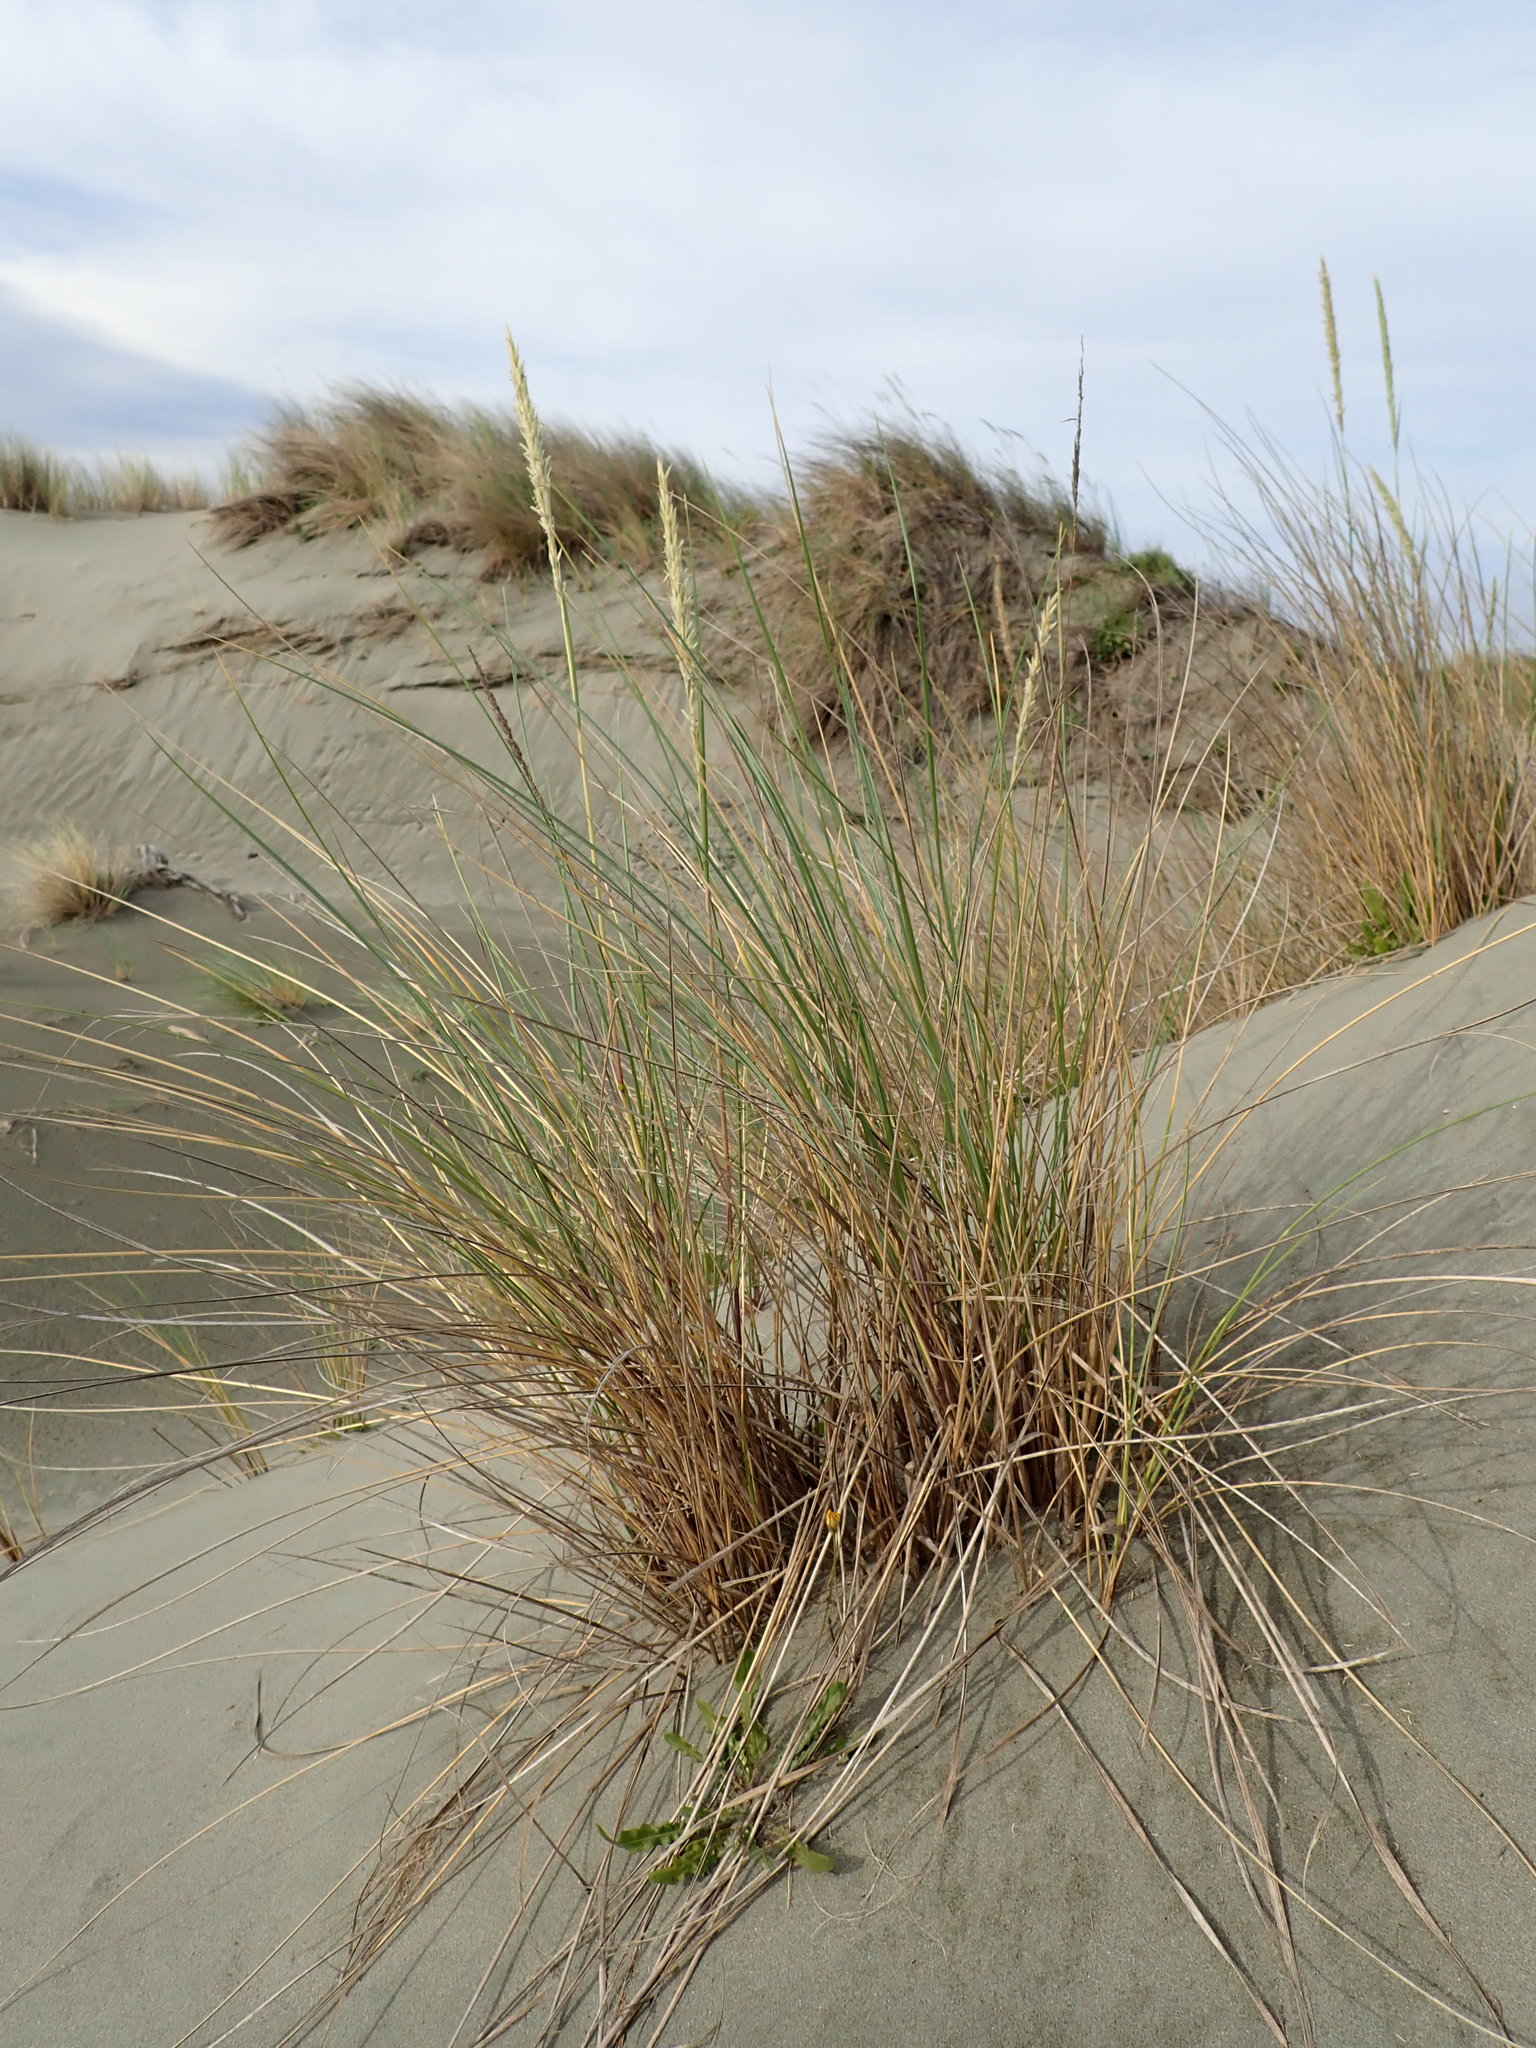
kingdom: Plantae
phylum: Tracheophyta
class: Liliopsida
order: Poales
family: Poaceae
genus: Calamagrostis
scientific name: Calamagrostis arenaria
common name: European beachgrass
